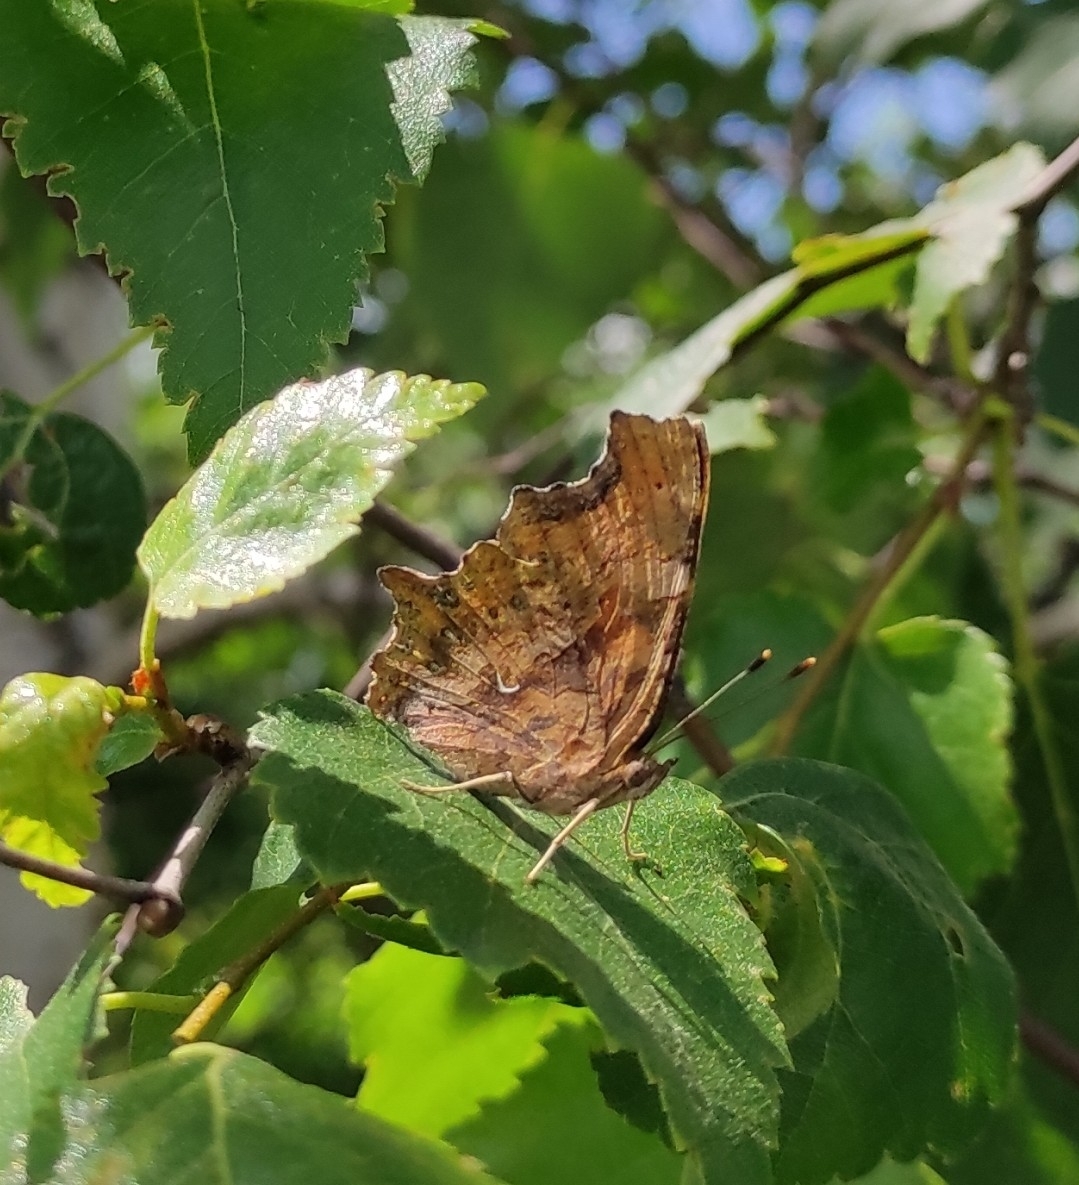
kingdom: Animalia
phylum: Arthropoda
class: Insecta
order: Lepidoptera
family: Nymphalidae
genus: Polygonia
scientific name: Polygonia c-album
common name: Comma
